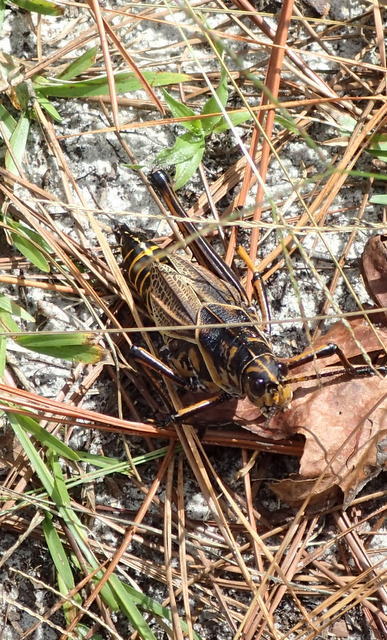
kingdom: Animalia
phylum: Arthropoda
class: Insecta
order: Orthoptera
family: Romaleidae
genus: Romalea
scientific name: Romalea microptera
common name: Eastern lubber grasshopper
